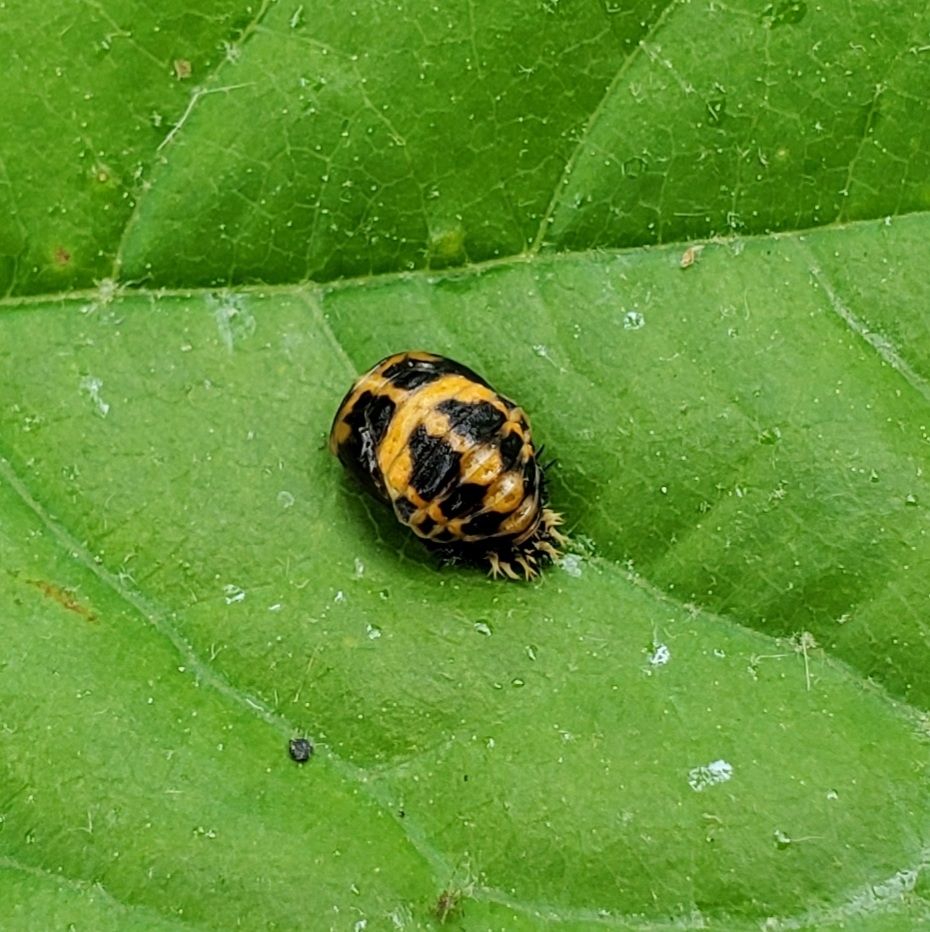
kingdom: Animalia
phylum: Arthropoda
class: Insecta
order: Coleoptera
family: Coccinellidae
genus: Harmonia
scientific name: Harmonia axyridis
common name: Harlequin ladybird
